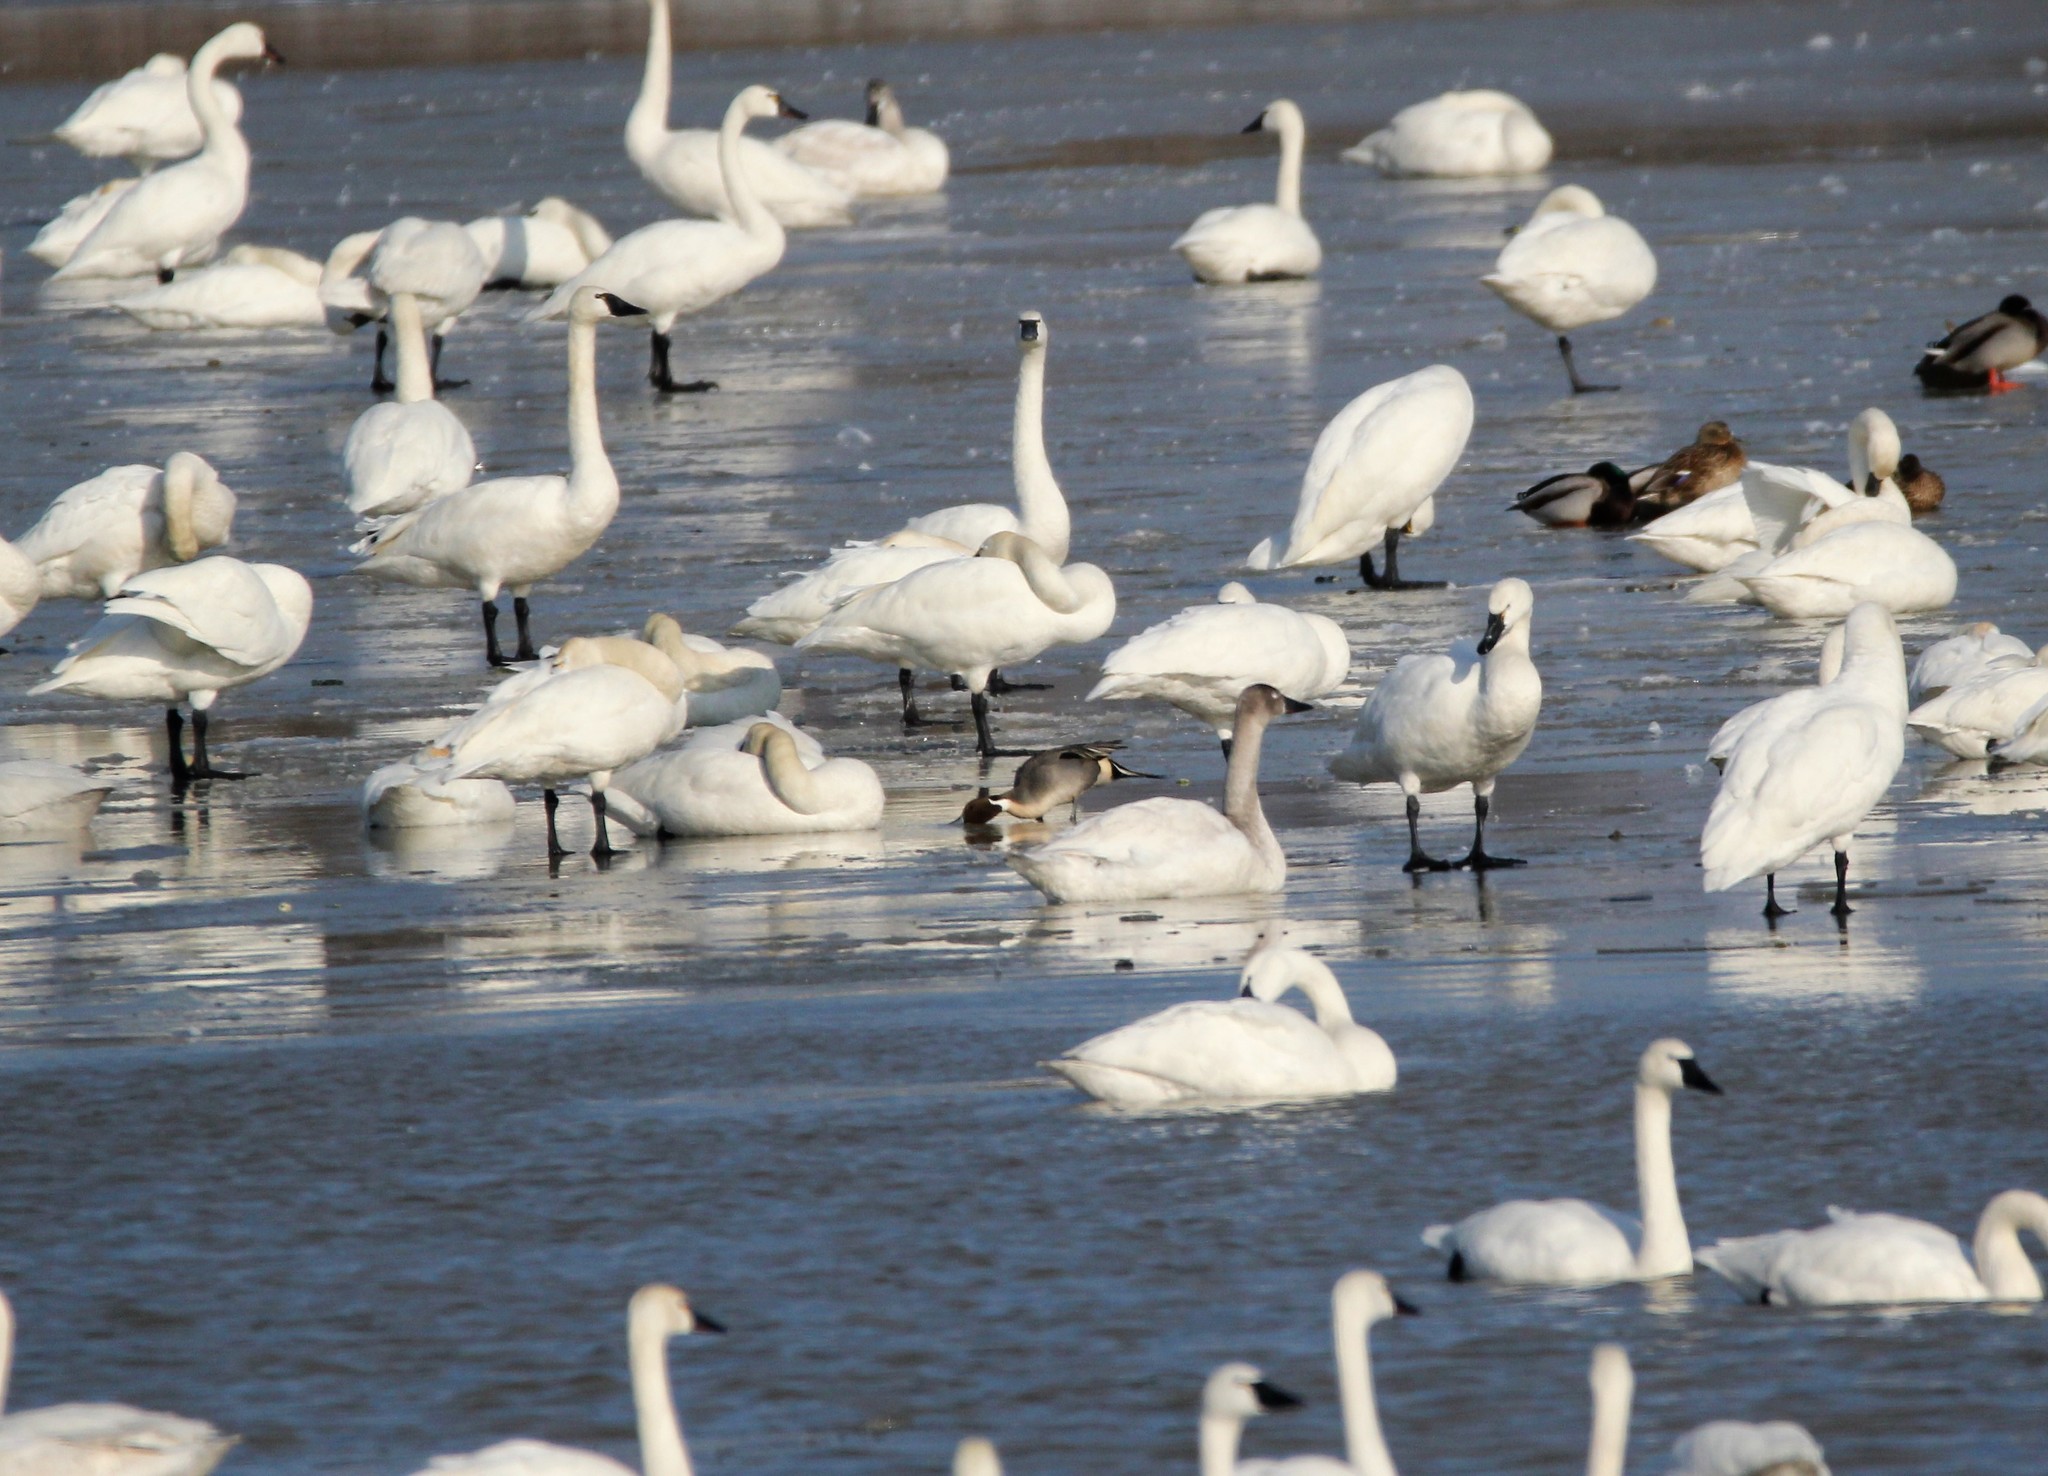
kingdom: Animalia
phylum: Chordata
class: Aves
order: Anseriformes
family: Anatidae
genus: Anas
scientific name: Anas acuta
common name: Northern pintail
